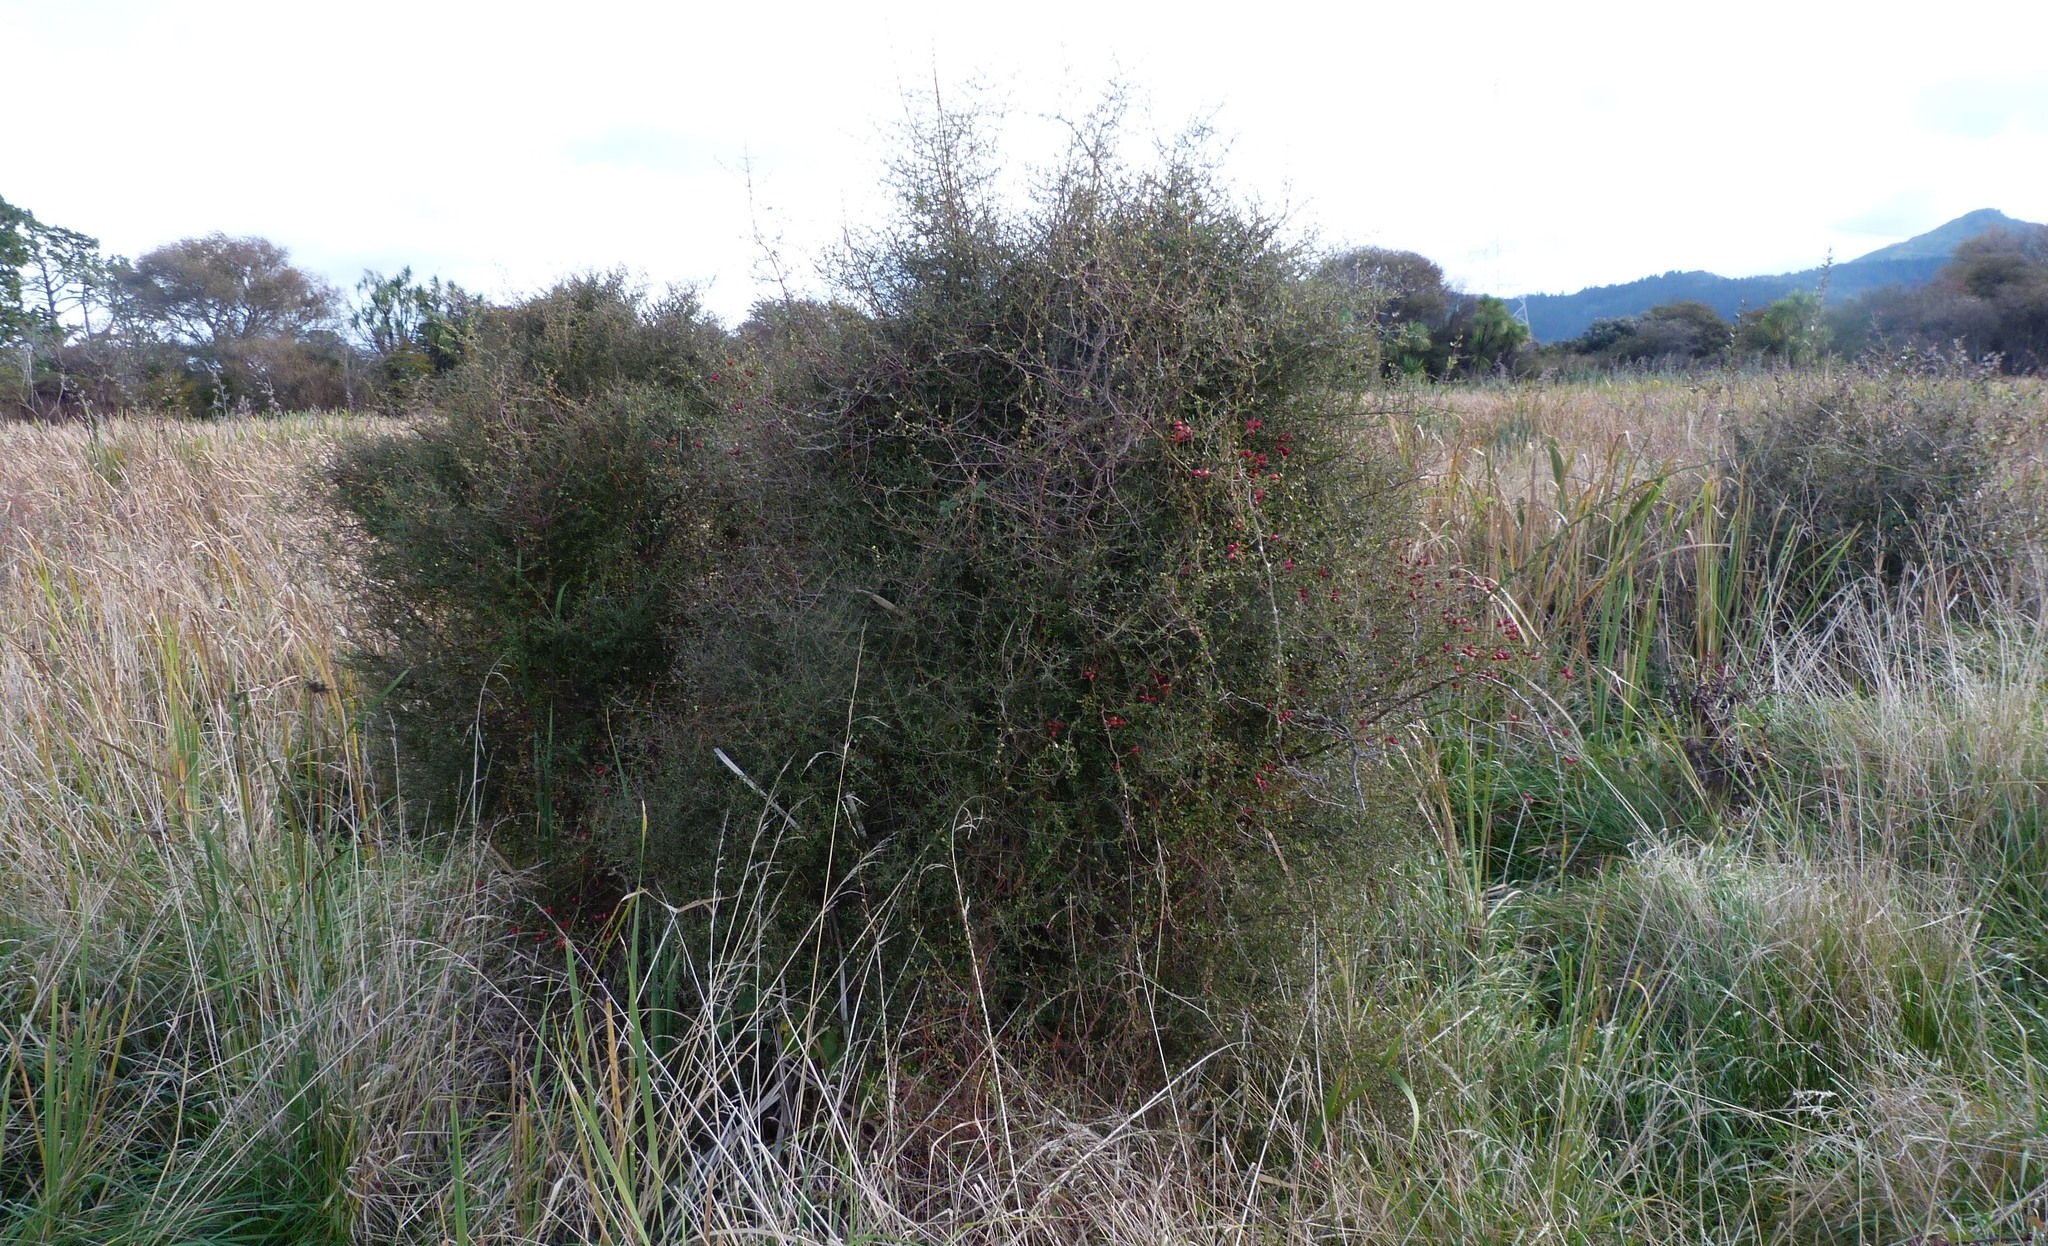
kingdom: Plantae
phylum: Tracheophyta
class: Magnoliopsida
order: Gentianales
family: Rubiaceae
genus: Coprosma
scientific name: Coprosma propinqua
